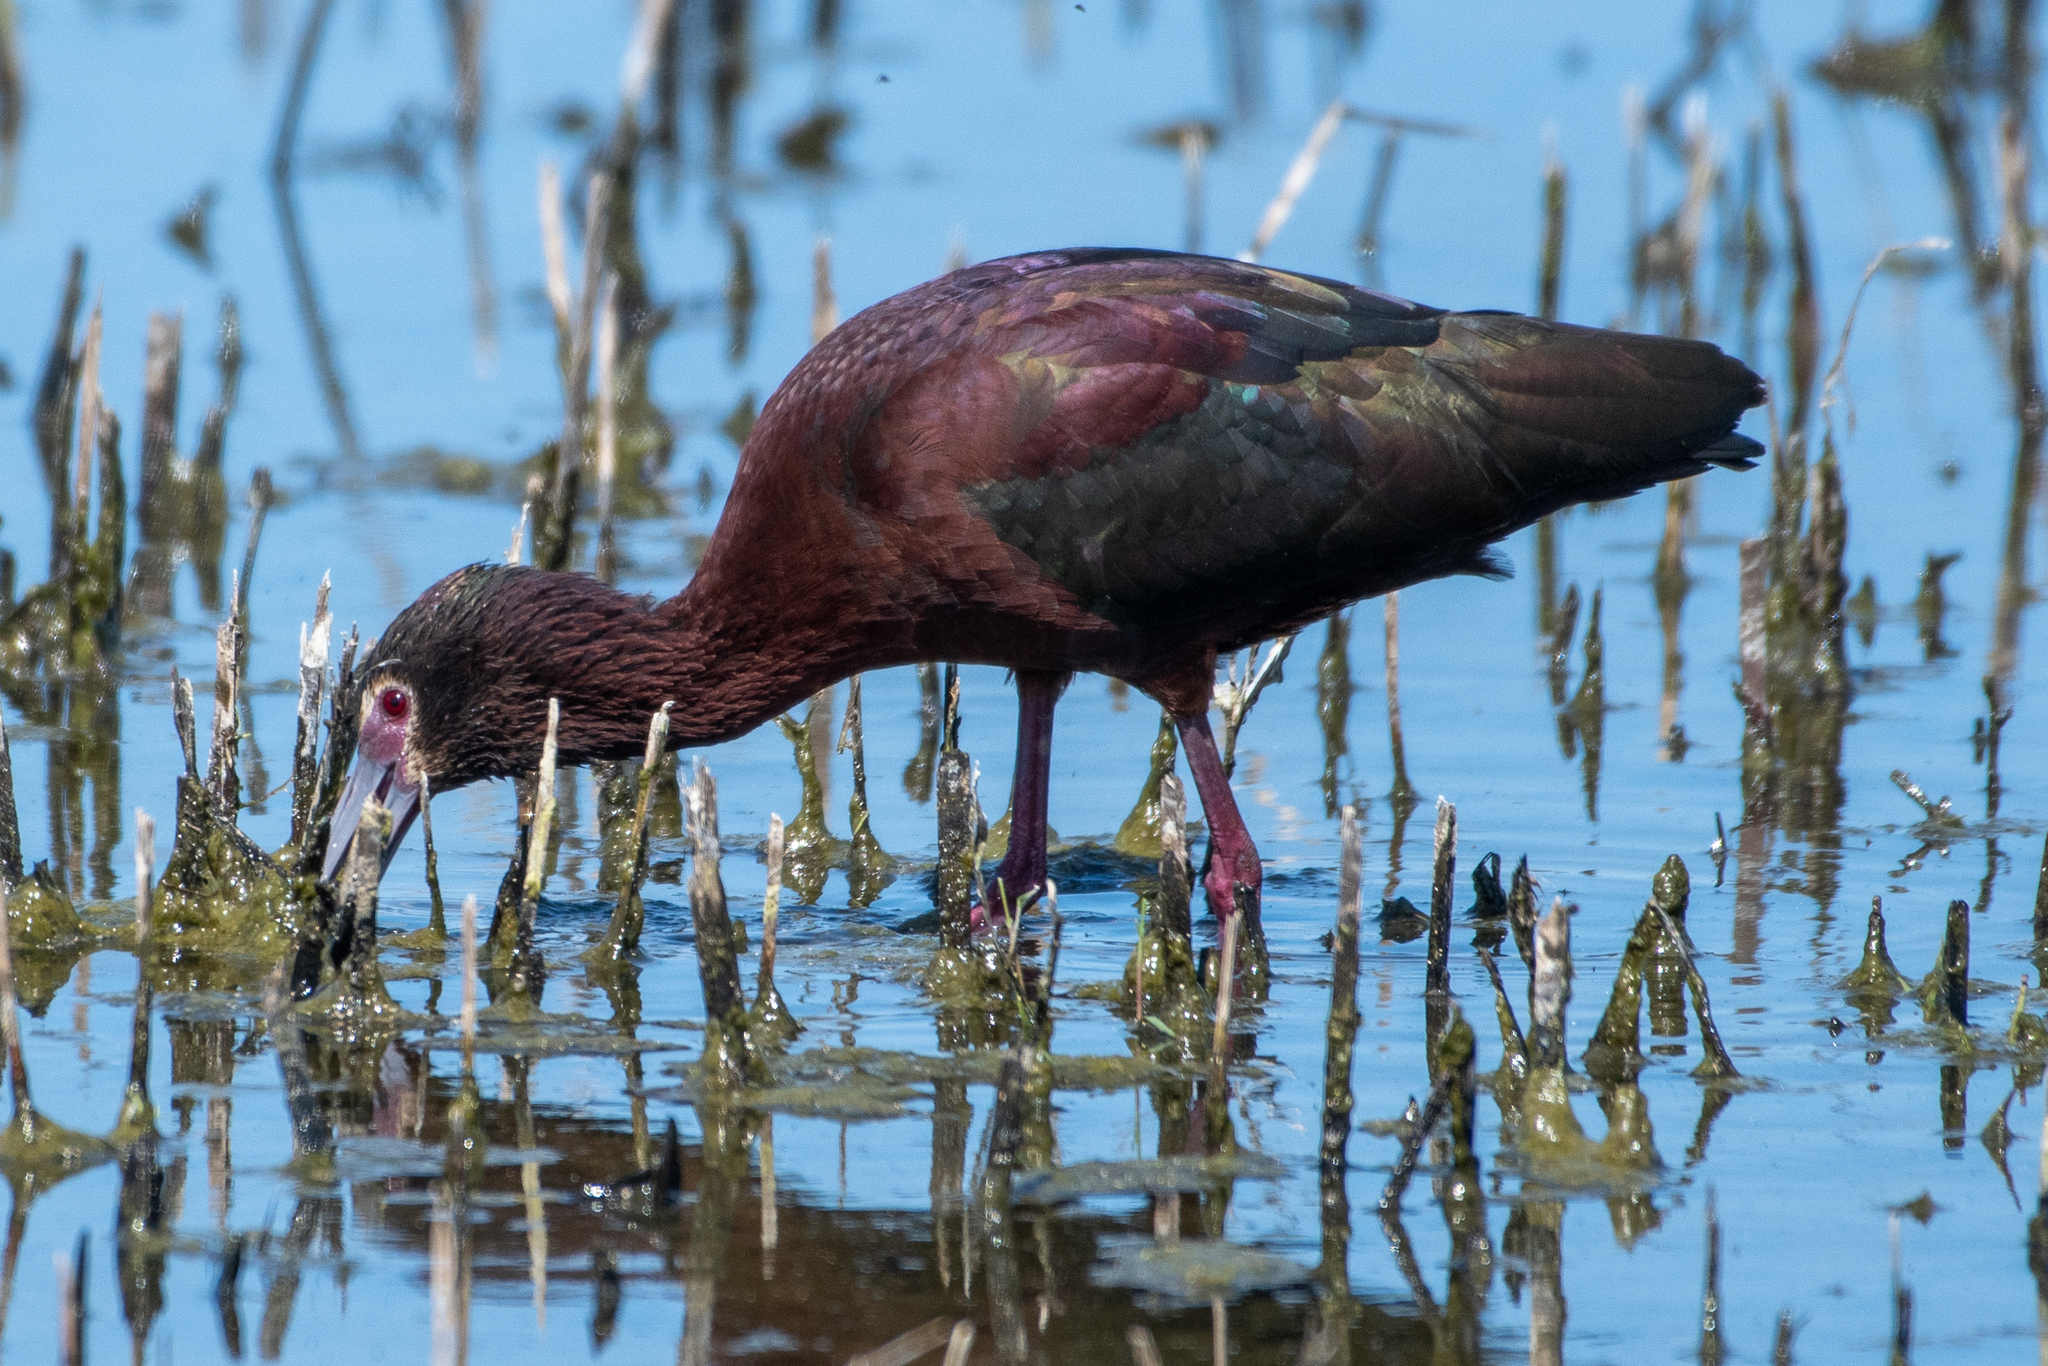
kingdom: Animalia
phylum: Chordata
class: Aves
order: Pelecaniformes
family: Threskiornithidae
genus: Plegadis
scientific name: Plegadis chihi
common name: White-faced ibis
